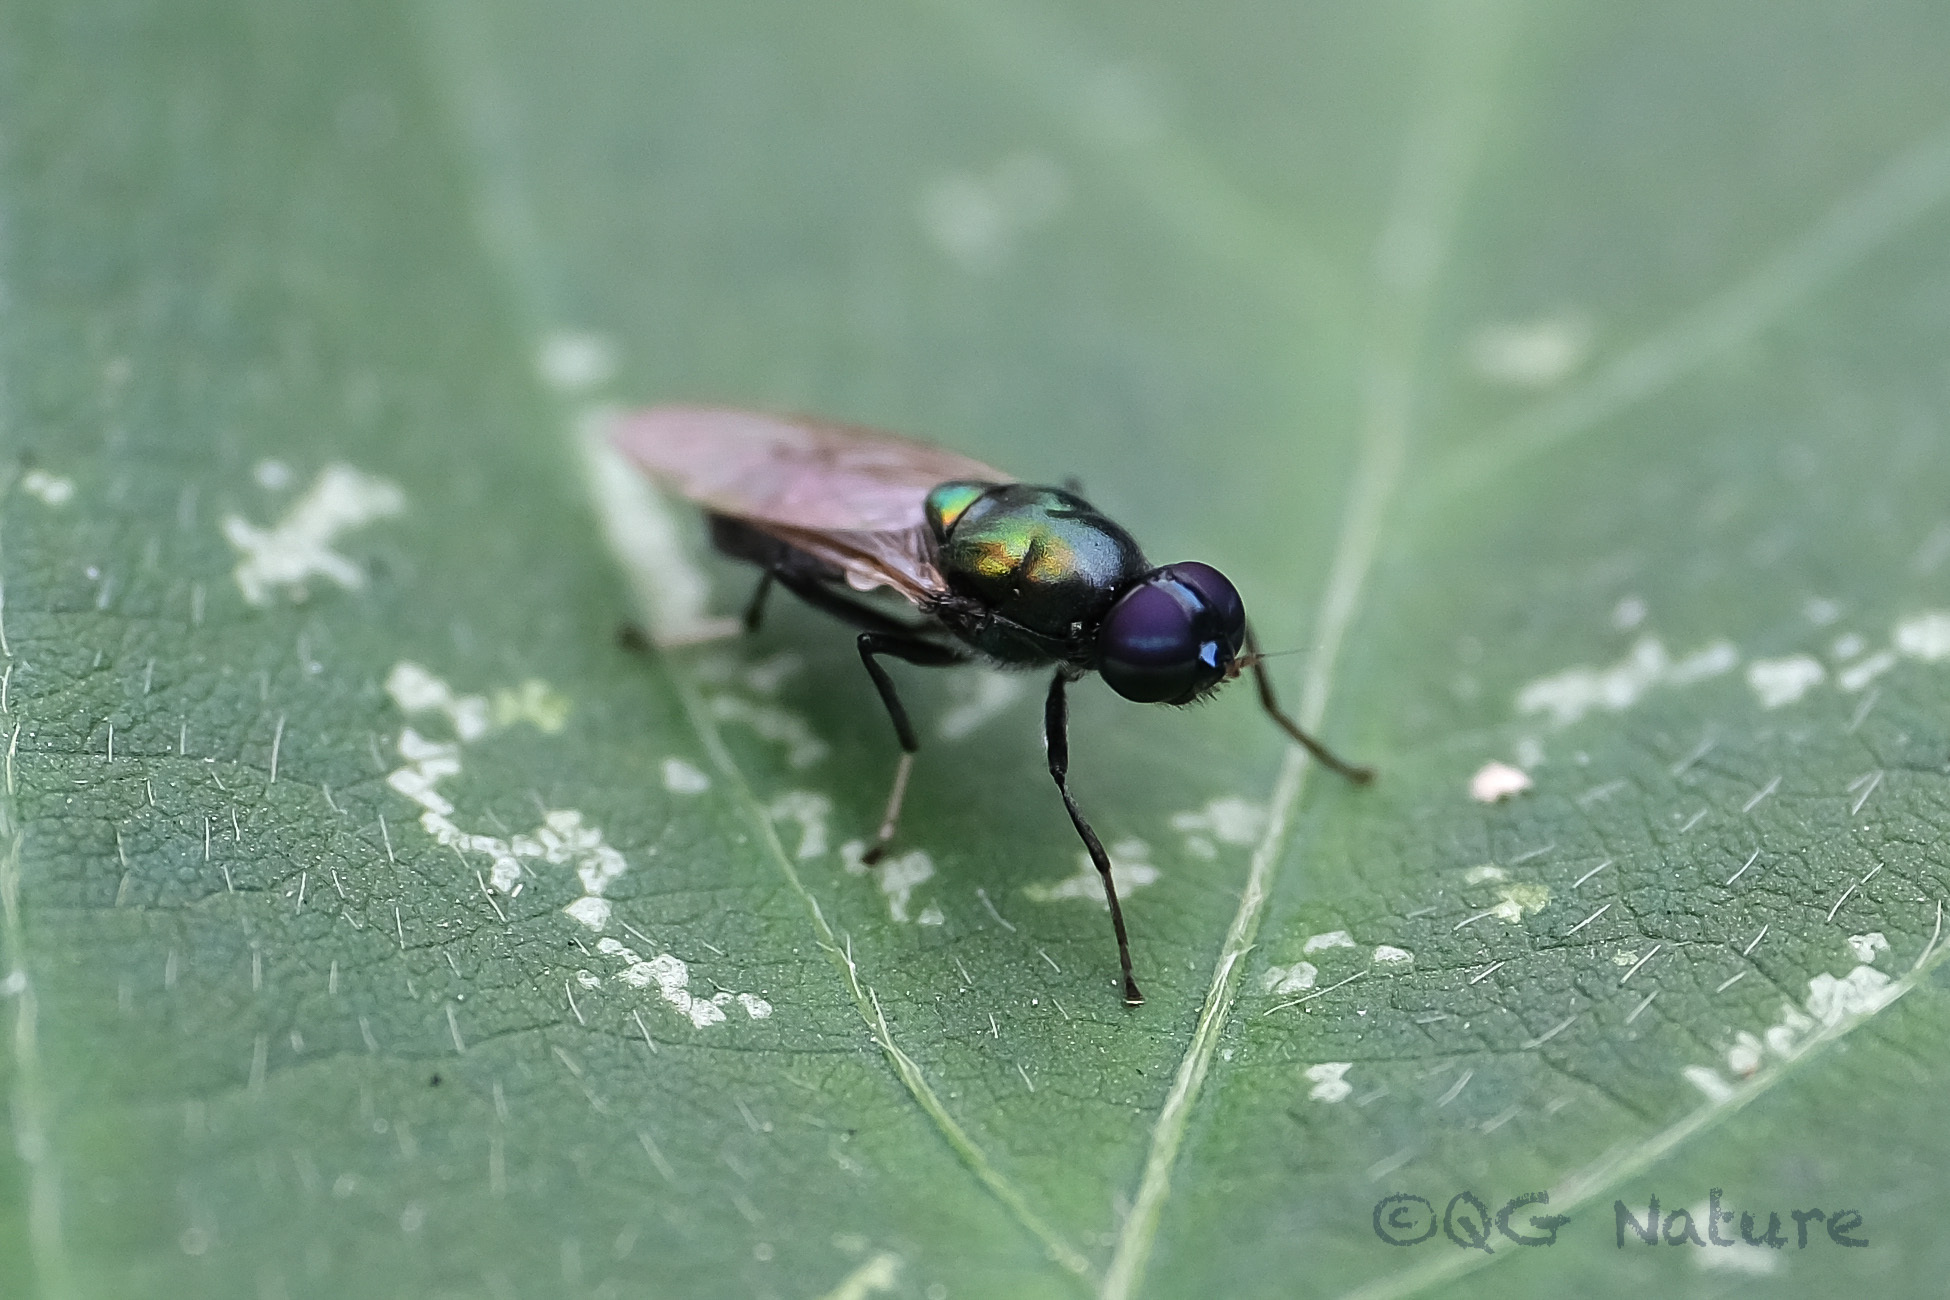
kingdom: Animalia
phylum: Arthropoda
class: Insecta
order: Diptera
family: Stratiomyidae
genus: Prosopochrysa
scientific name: Prosopochrysa vitripennis
